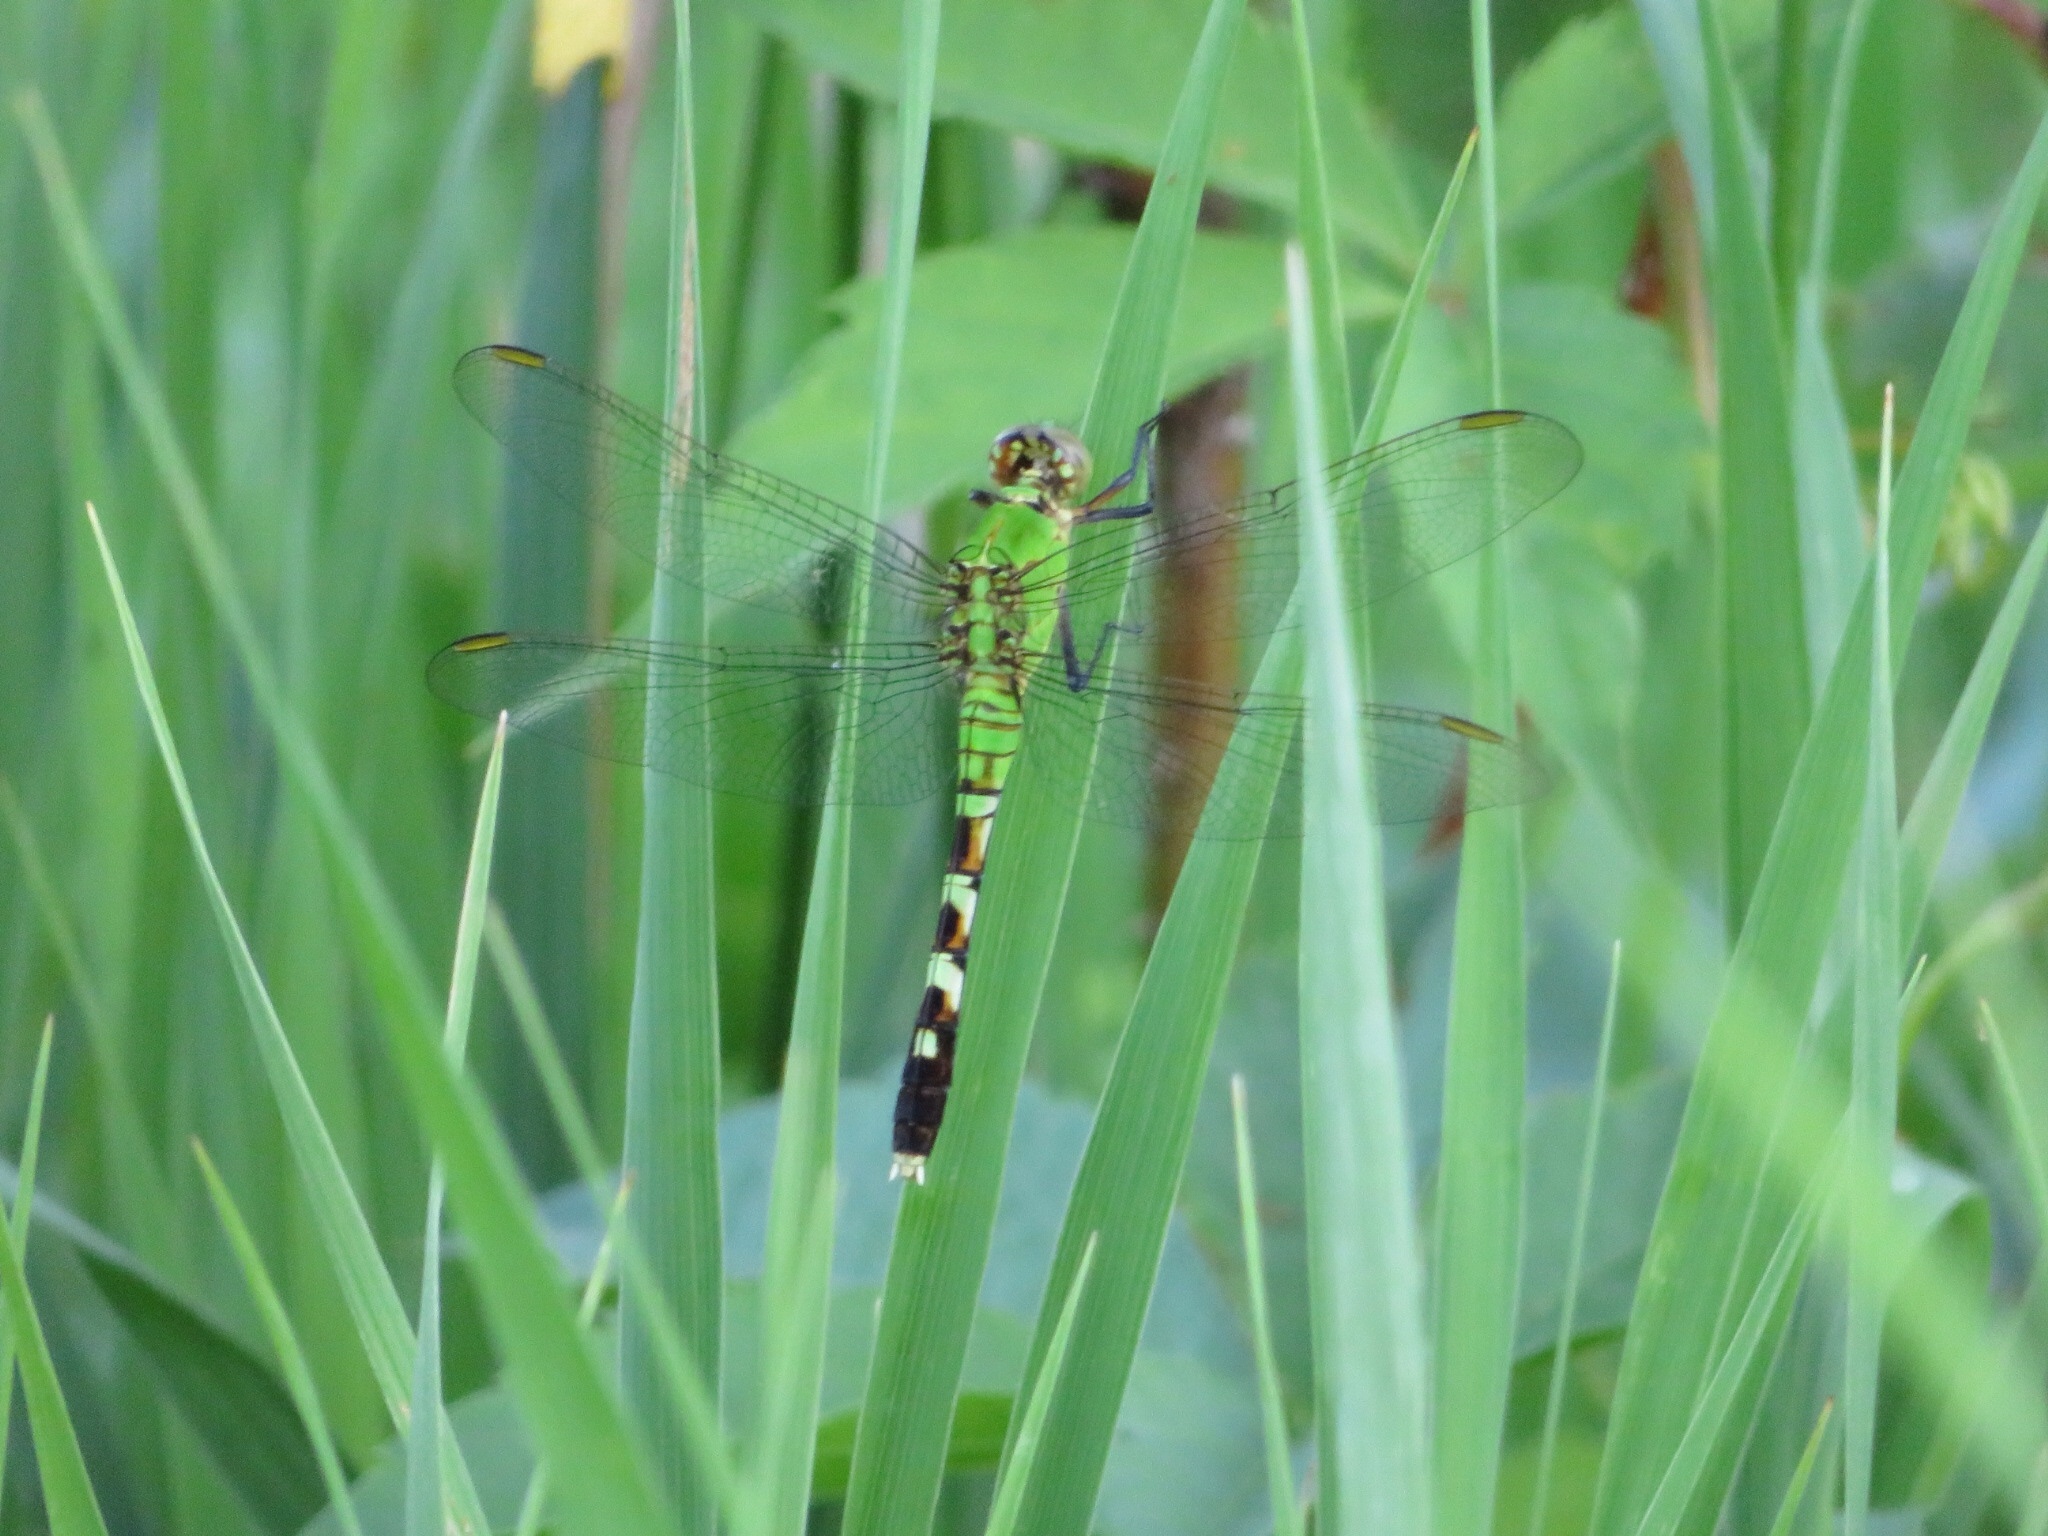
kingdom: Animalia
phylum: Arthropoda
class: Insecta
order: Odonata
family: Libellulidae
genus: Erythemis
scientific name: Erythemis simplicicollis
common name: Eastern pondhawk
